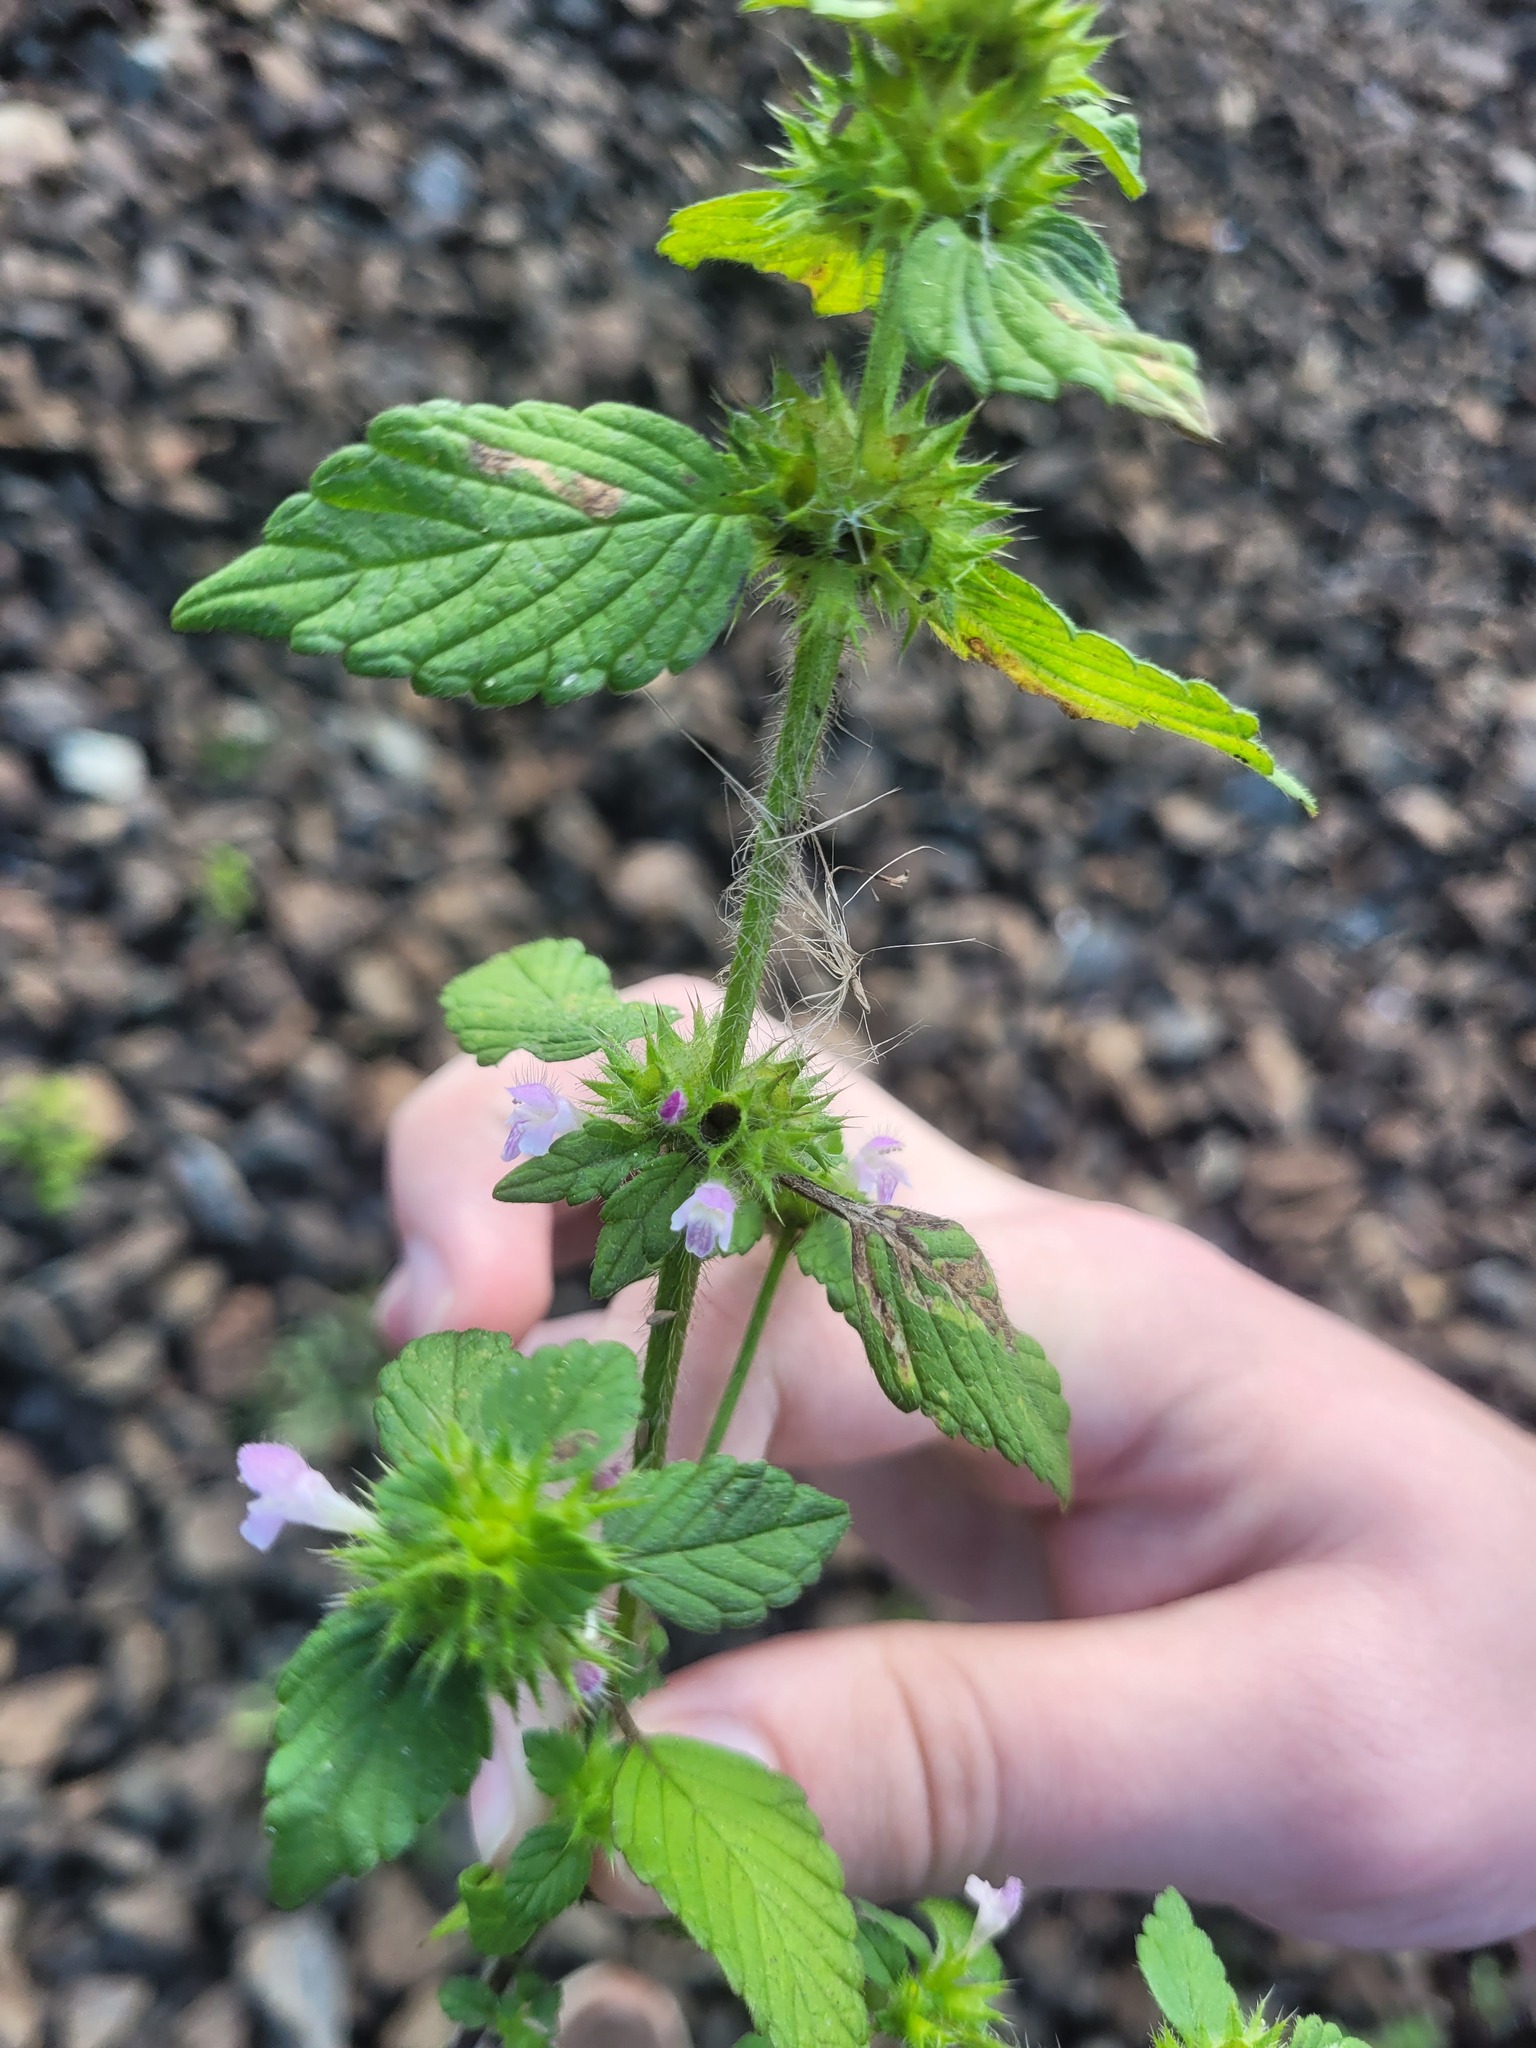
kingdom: Plantae
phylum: Tracheophyta
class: Magnoliopsida
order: Lamiales
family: Lamiaceae
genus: Galeopsis
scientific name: Galeopsis bifida
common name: Bifid hemp-nettle
